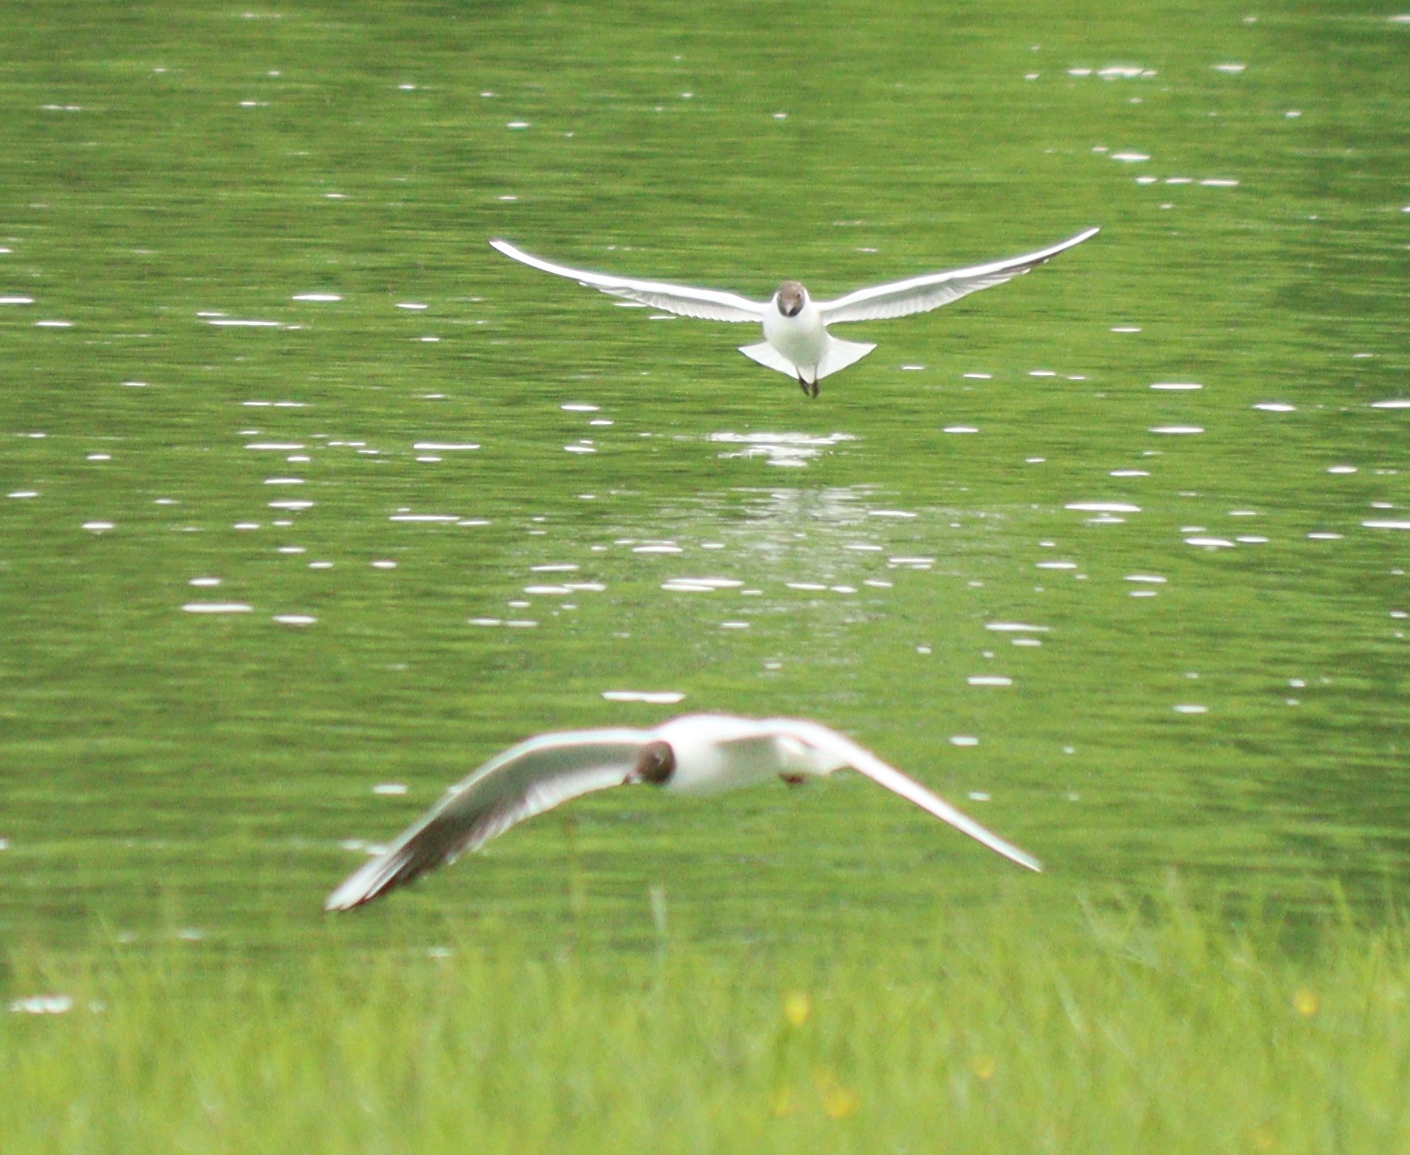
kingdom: Animalia
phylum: Chordata
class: Aves
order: Charadriiformes
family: Laridae
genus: Chroicocephalus
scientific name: Chroicocephalus ridibundus
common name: Black-headed gull
